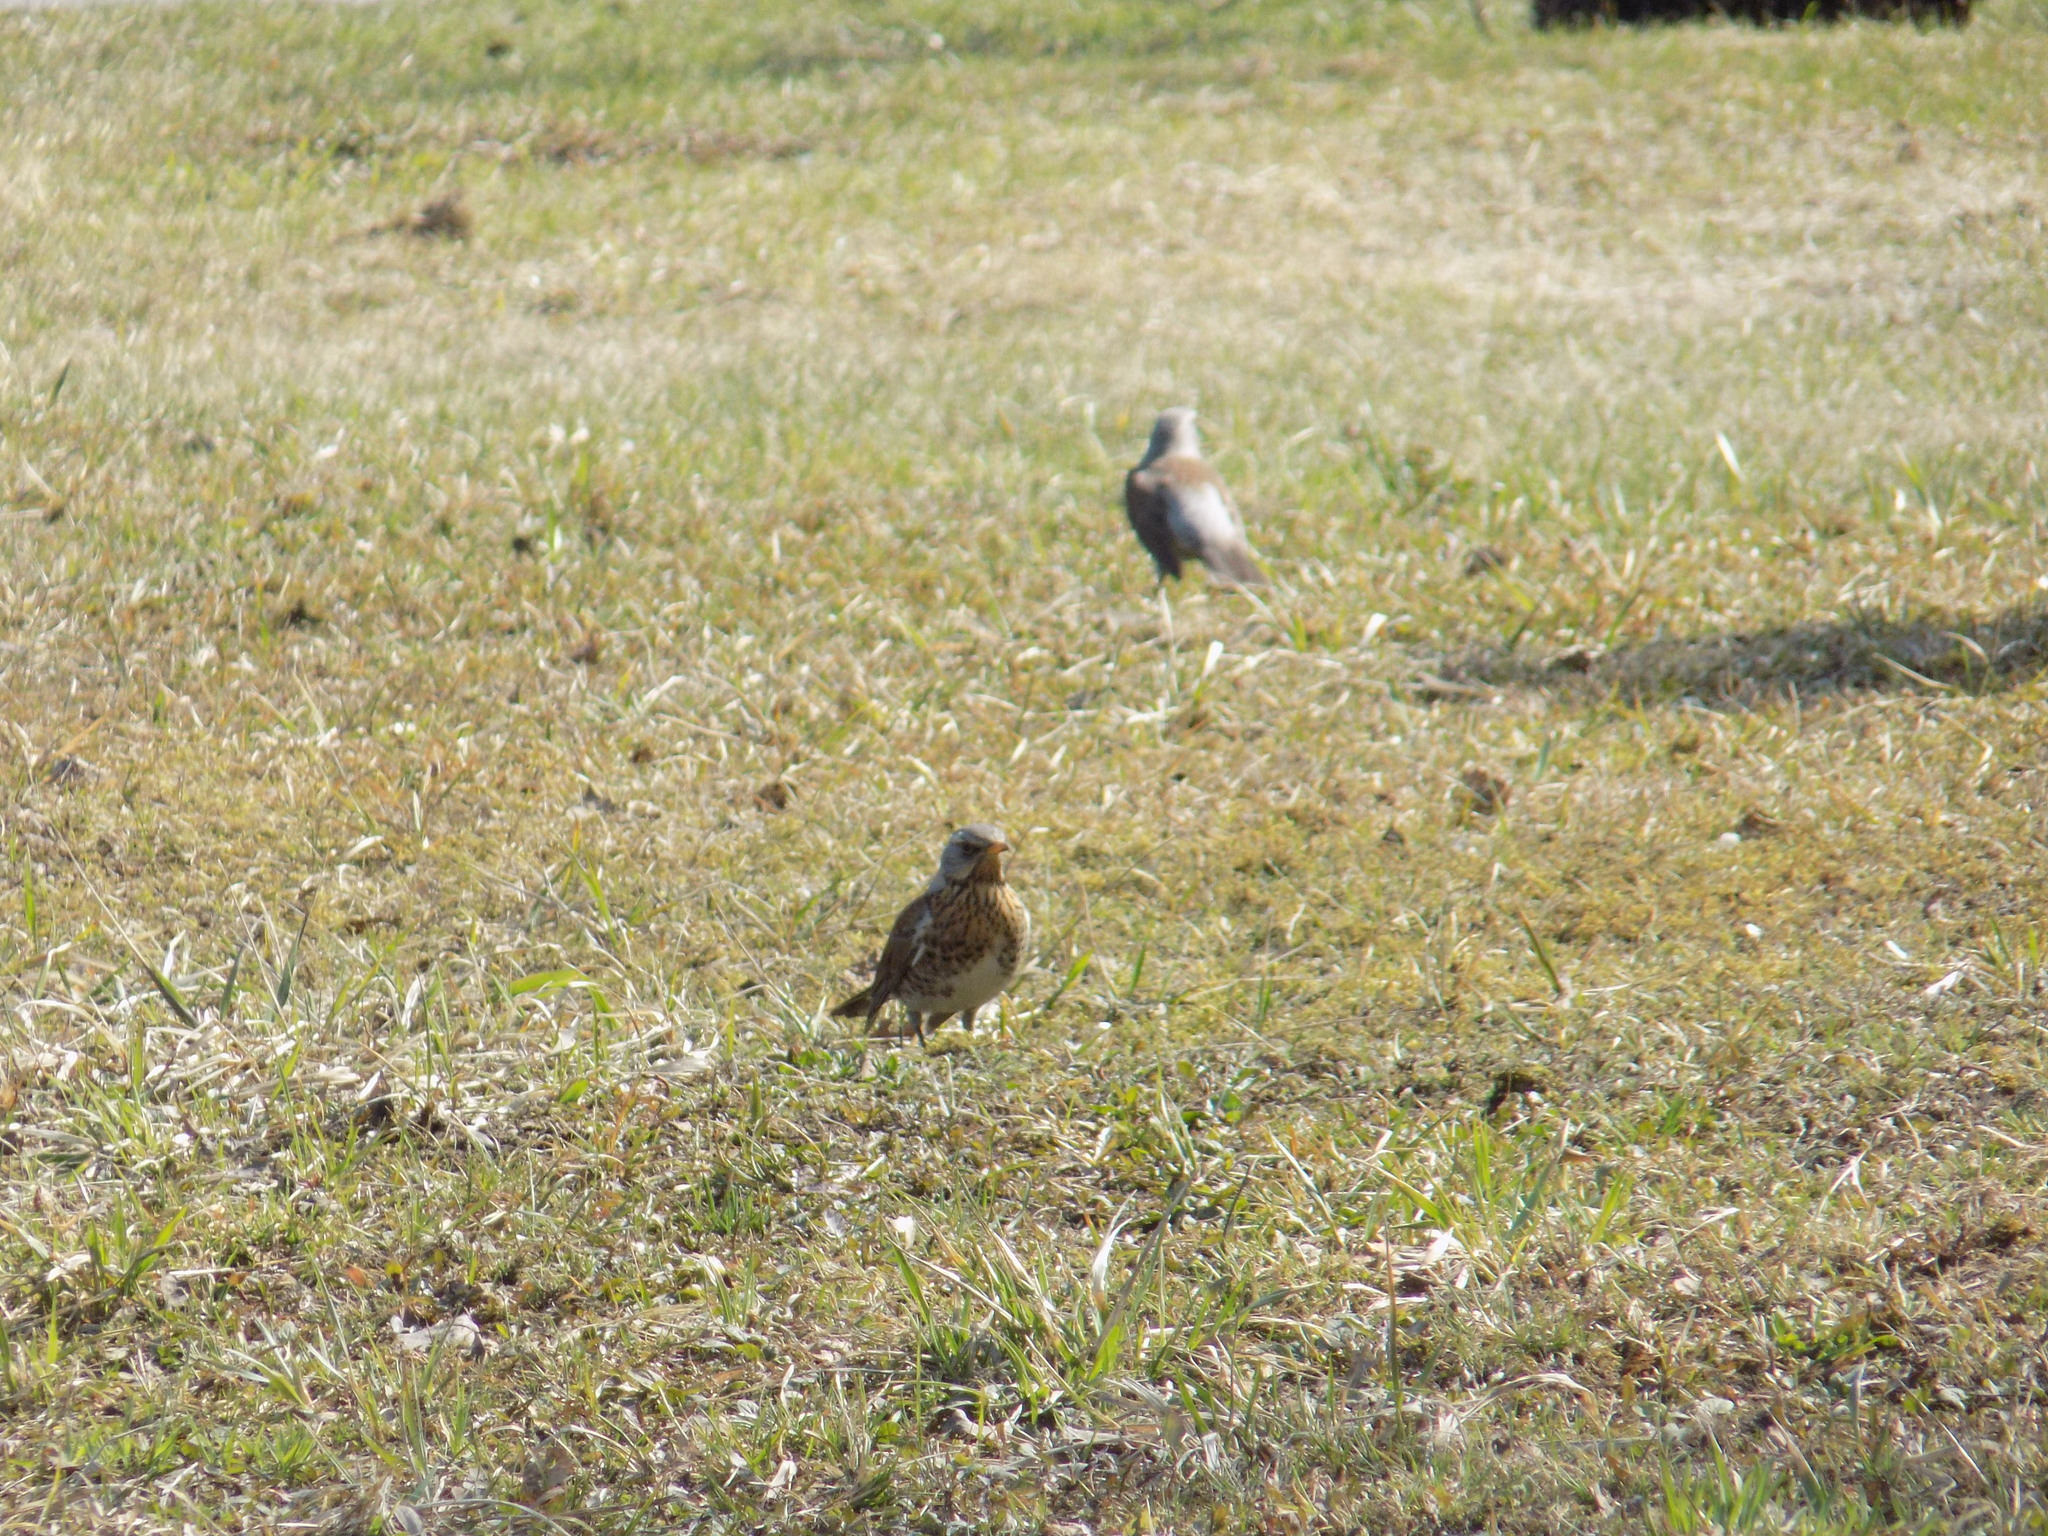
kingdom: Animalia
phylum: Chordata
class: Aves
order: Passeriformes
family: Turdidae
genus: Turdus
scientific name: Turdus pilaris
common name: Fieldfare
